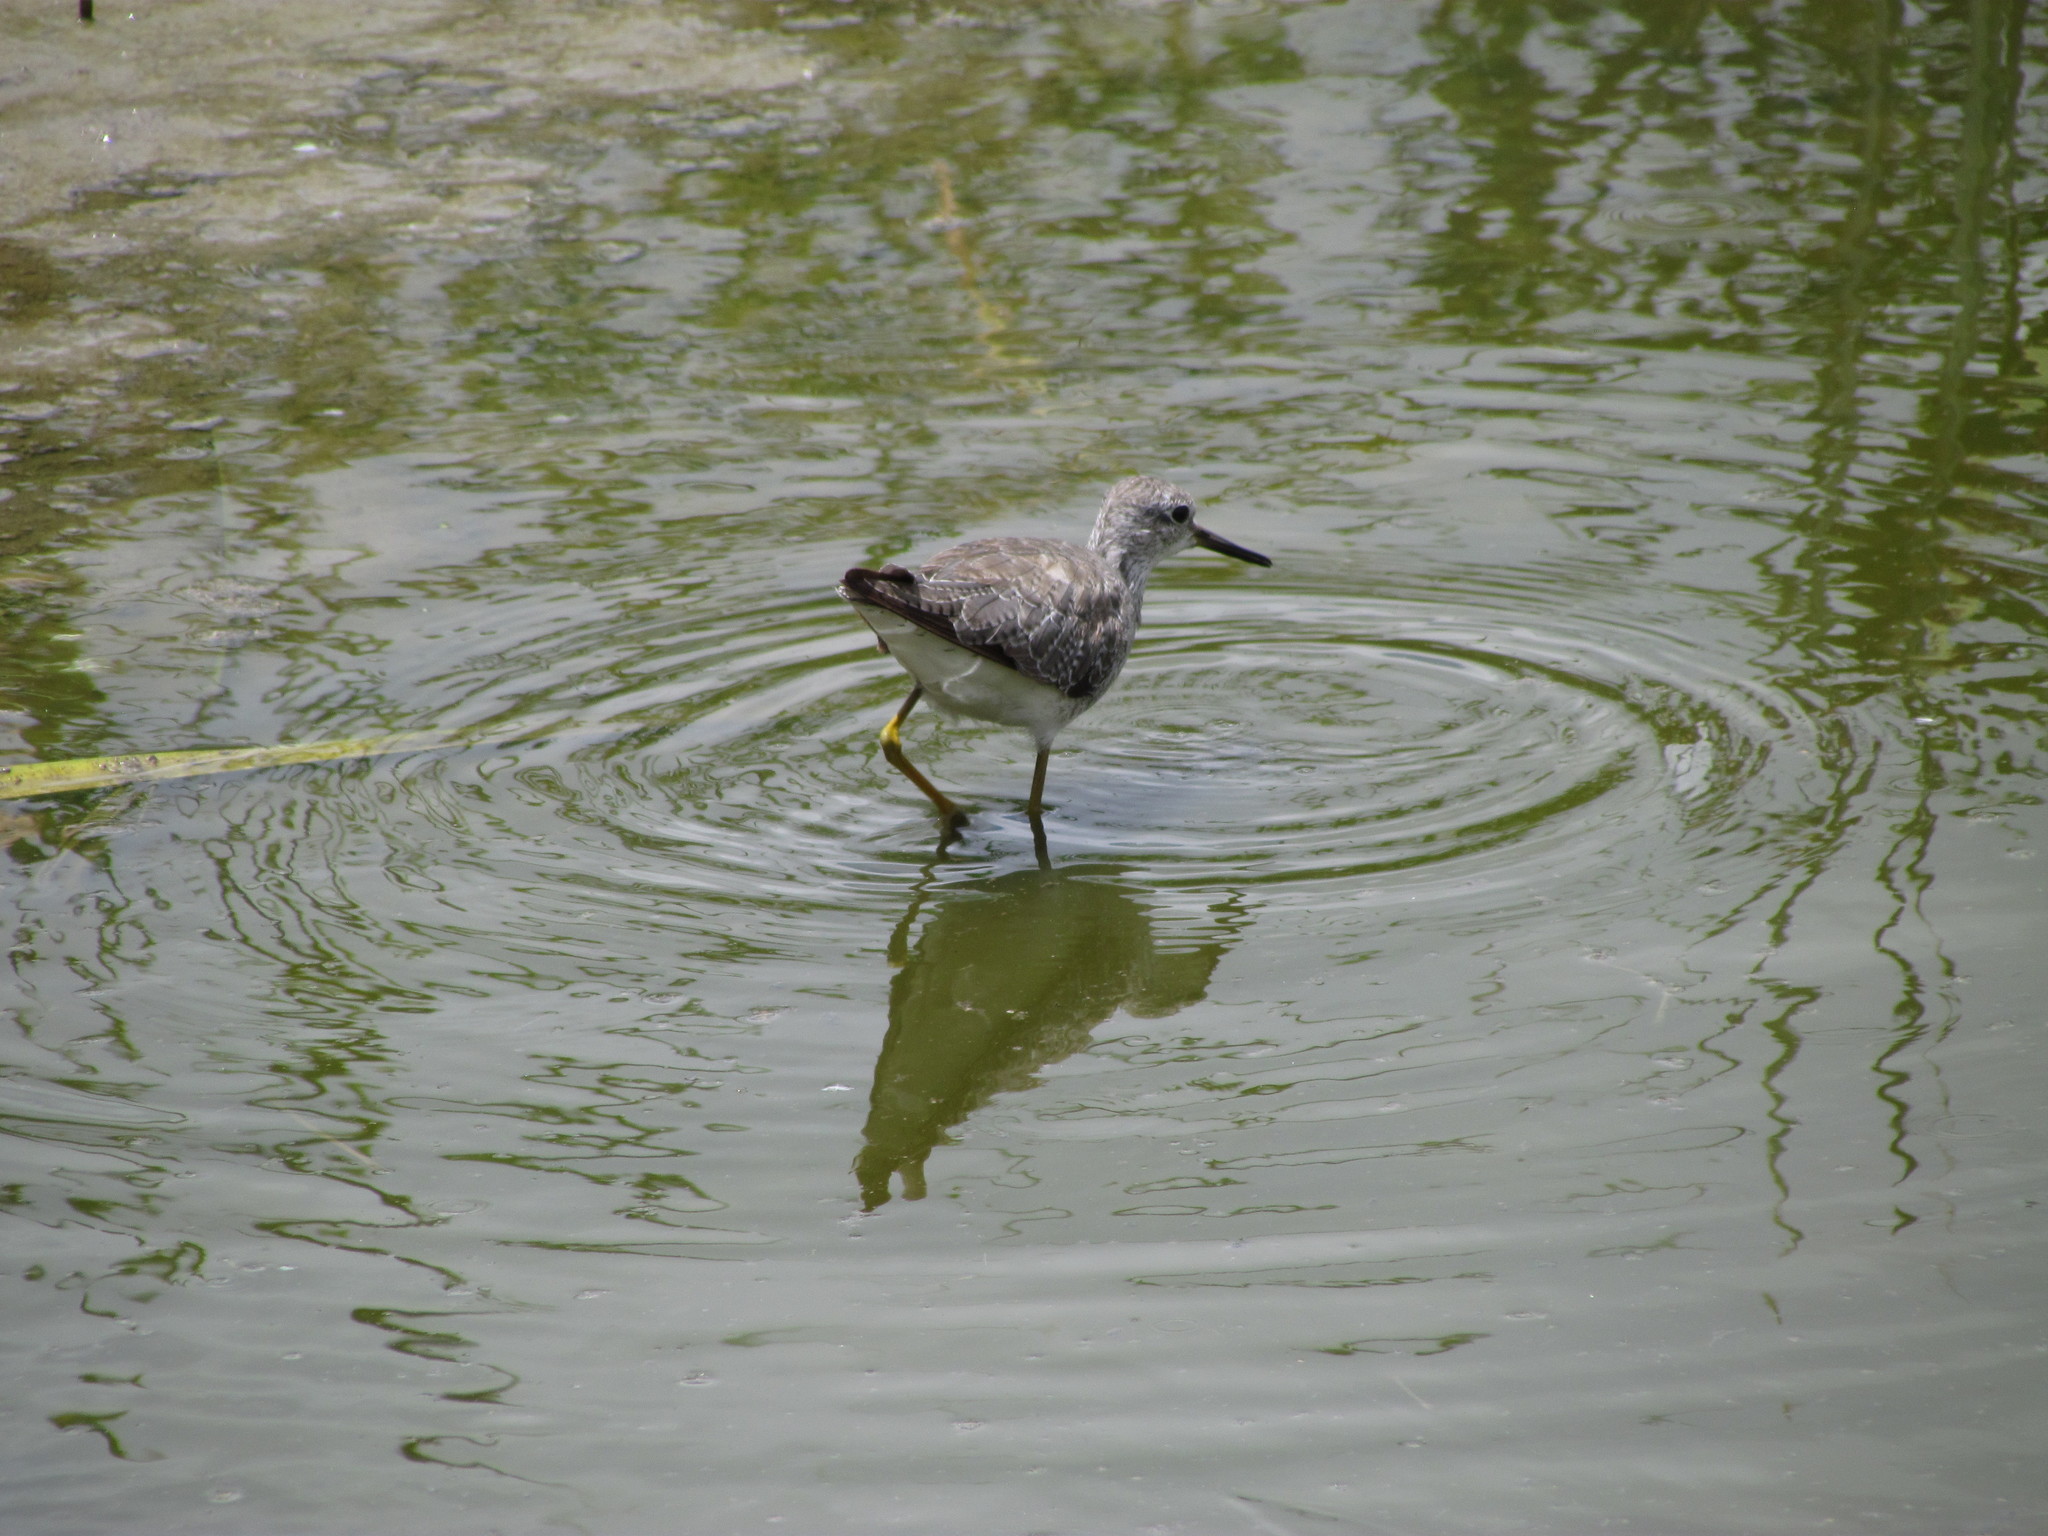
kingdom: Animalia
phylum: Chordata
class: Aves
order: Charadriiformes
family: Scolopacidae
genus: Tringa
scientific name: Tringa solitaria
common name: Solitary sandpiper
